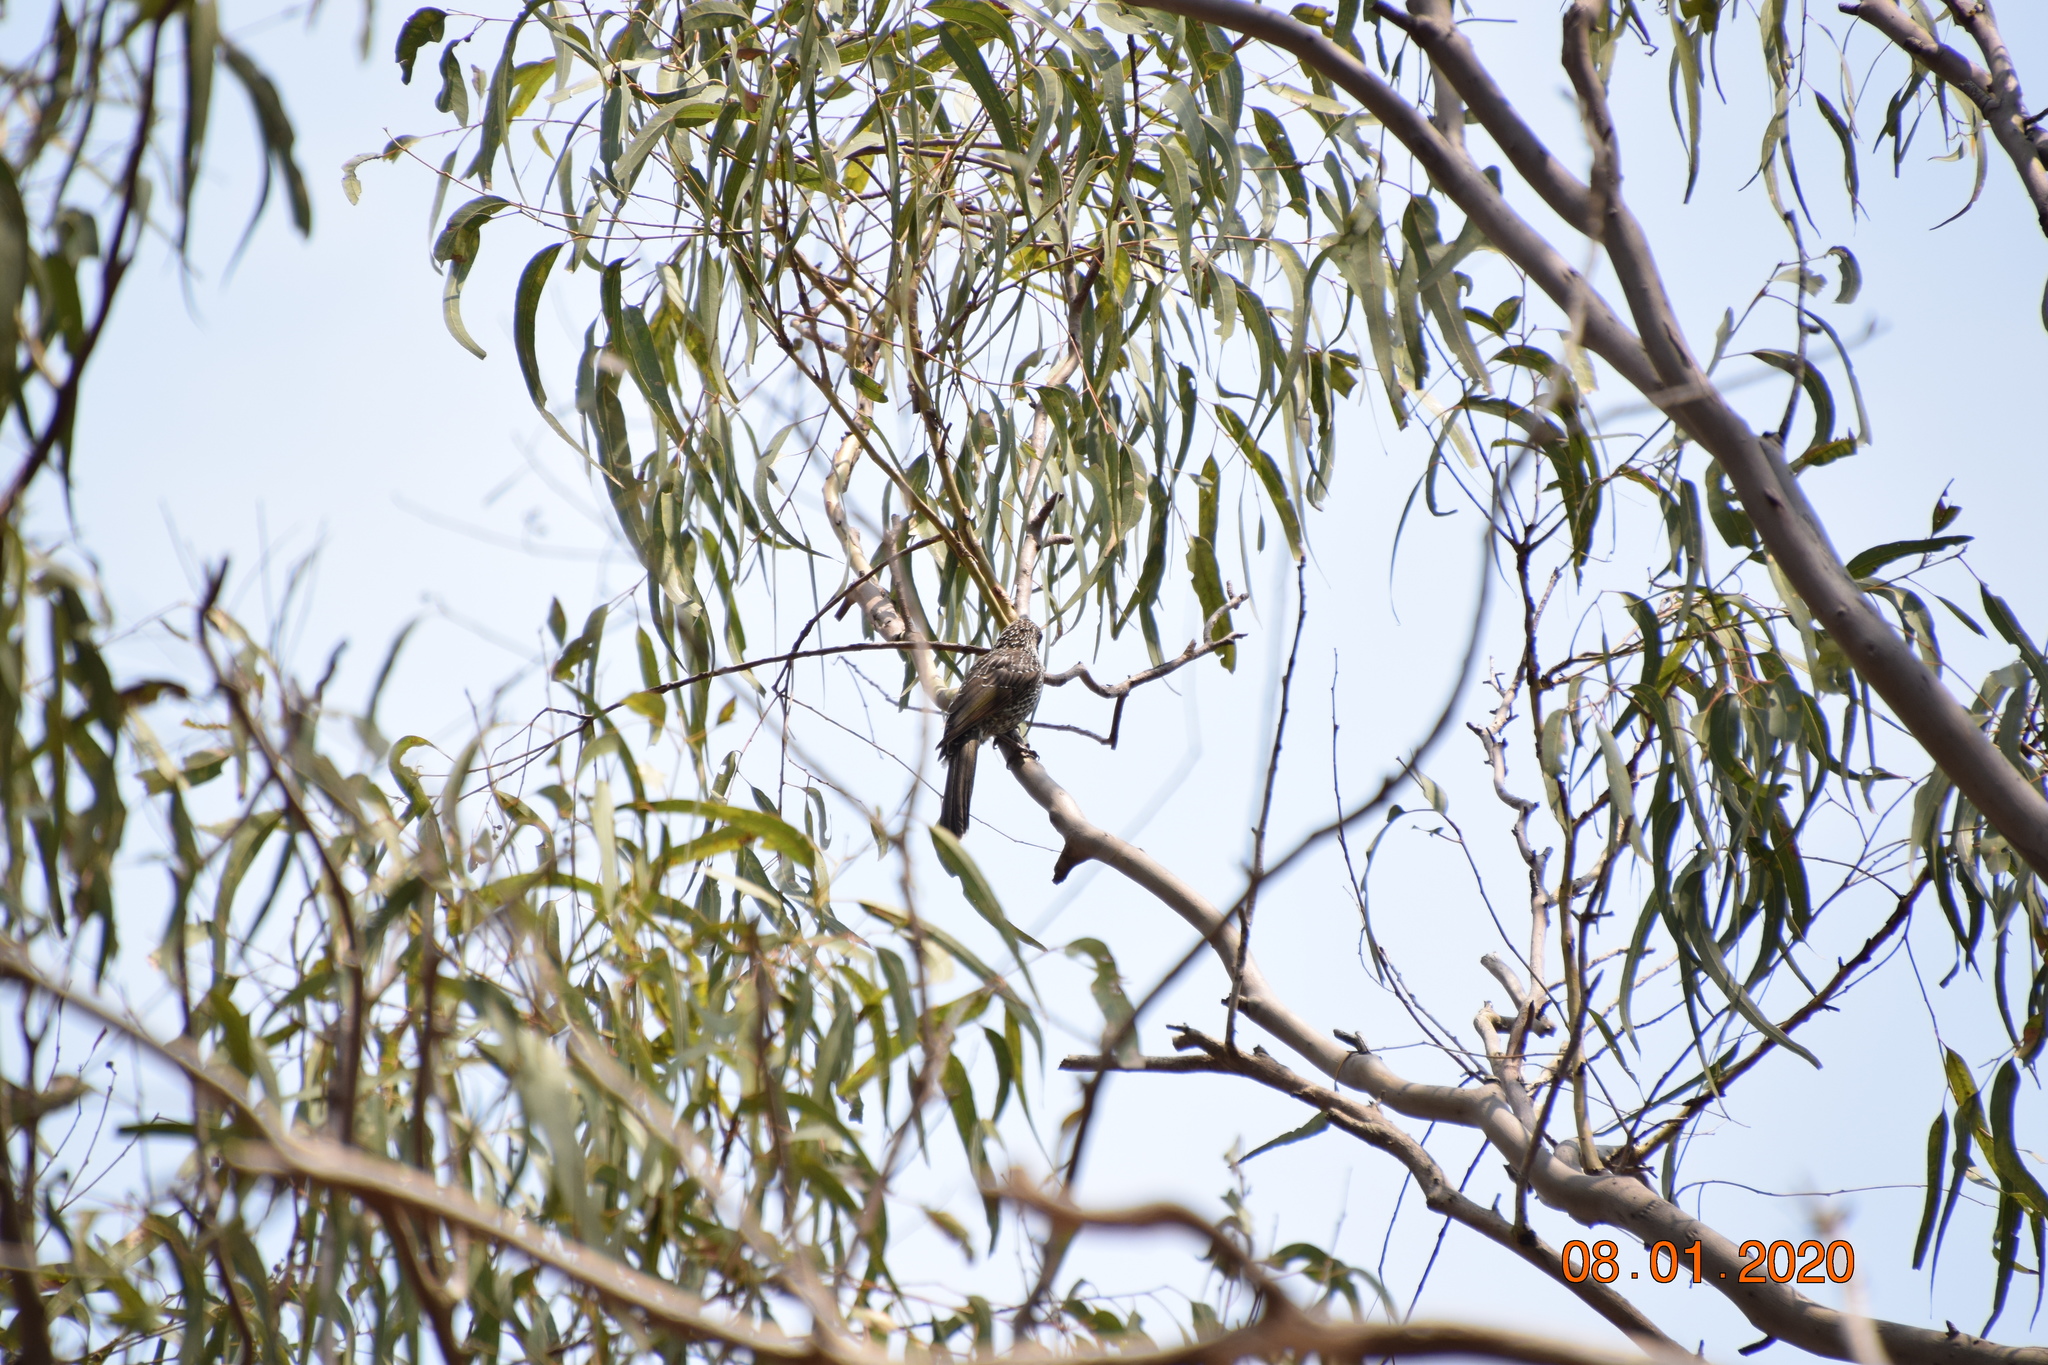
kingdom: Animalia
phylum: Chordata
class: Aves
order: Passeriformes
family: Meliphagidae
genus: Anthochaera
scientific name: Anthochaera chrysoptera
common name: Little wattlebird
